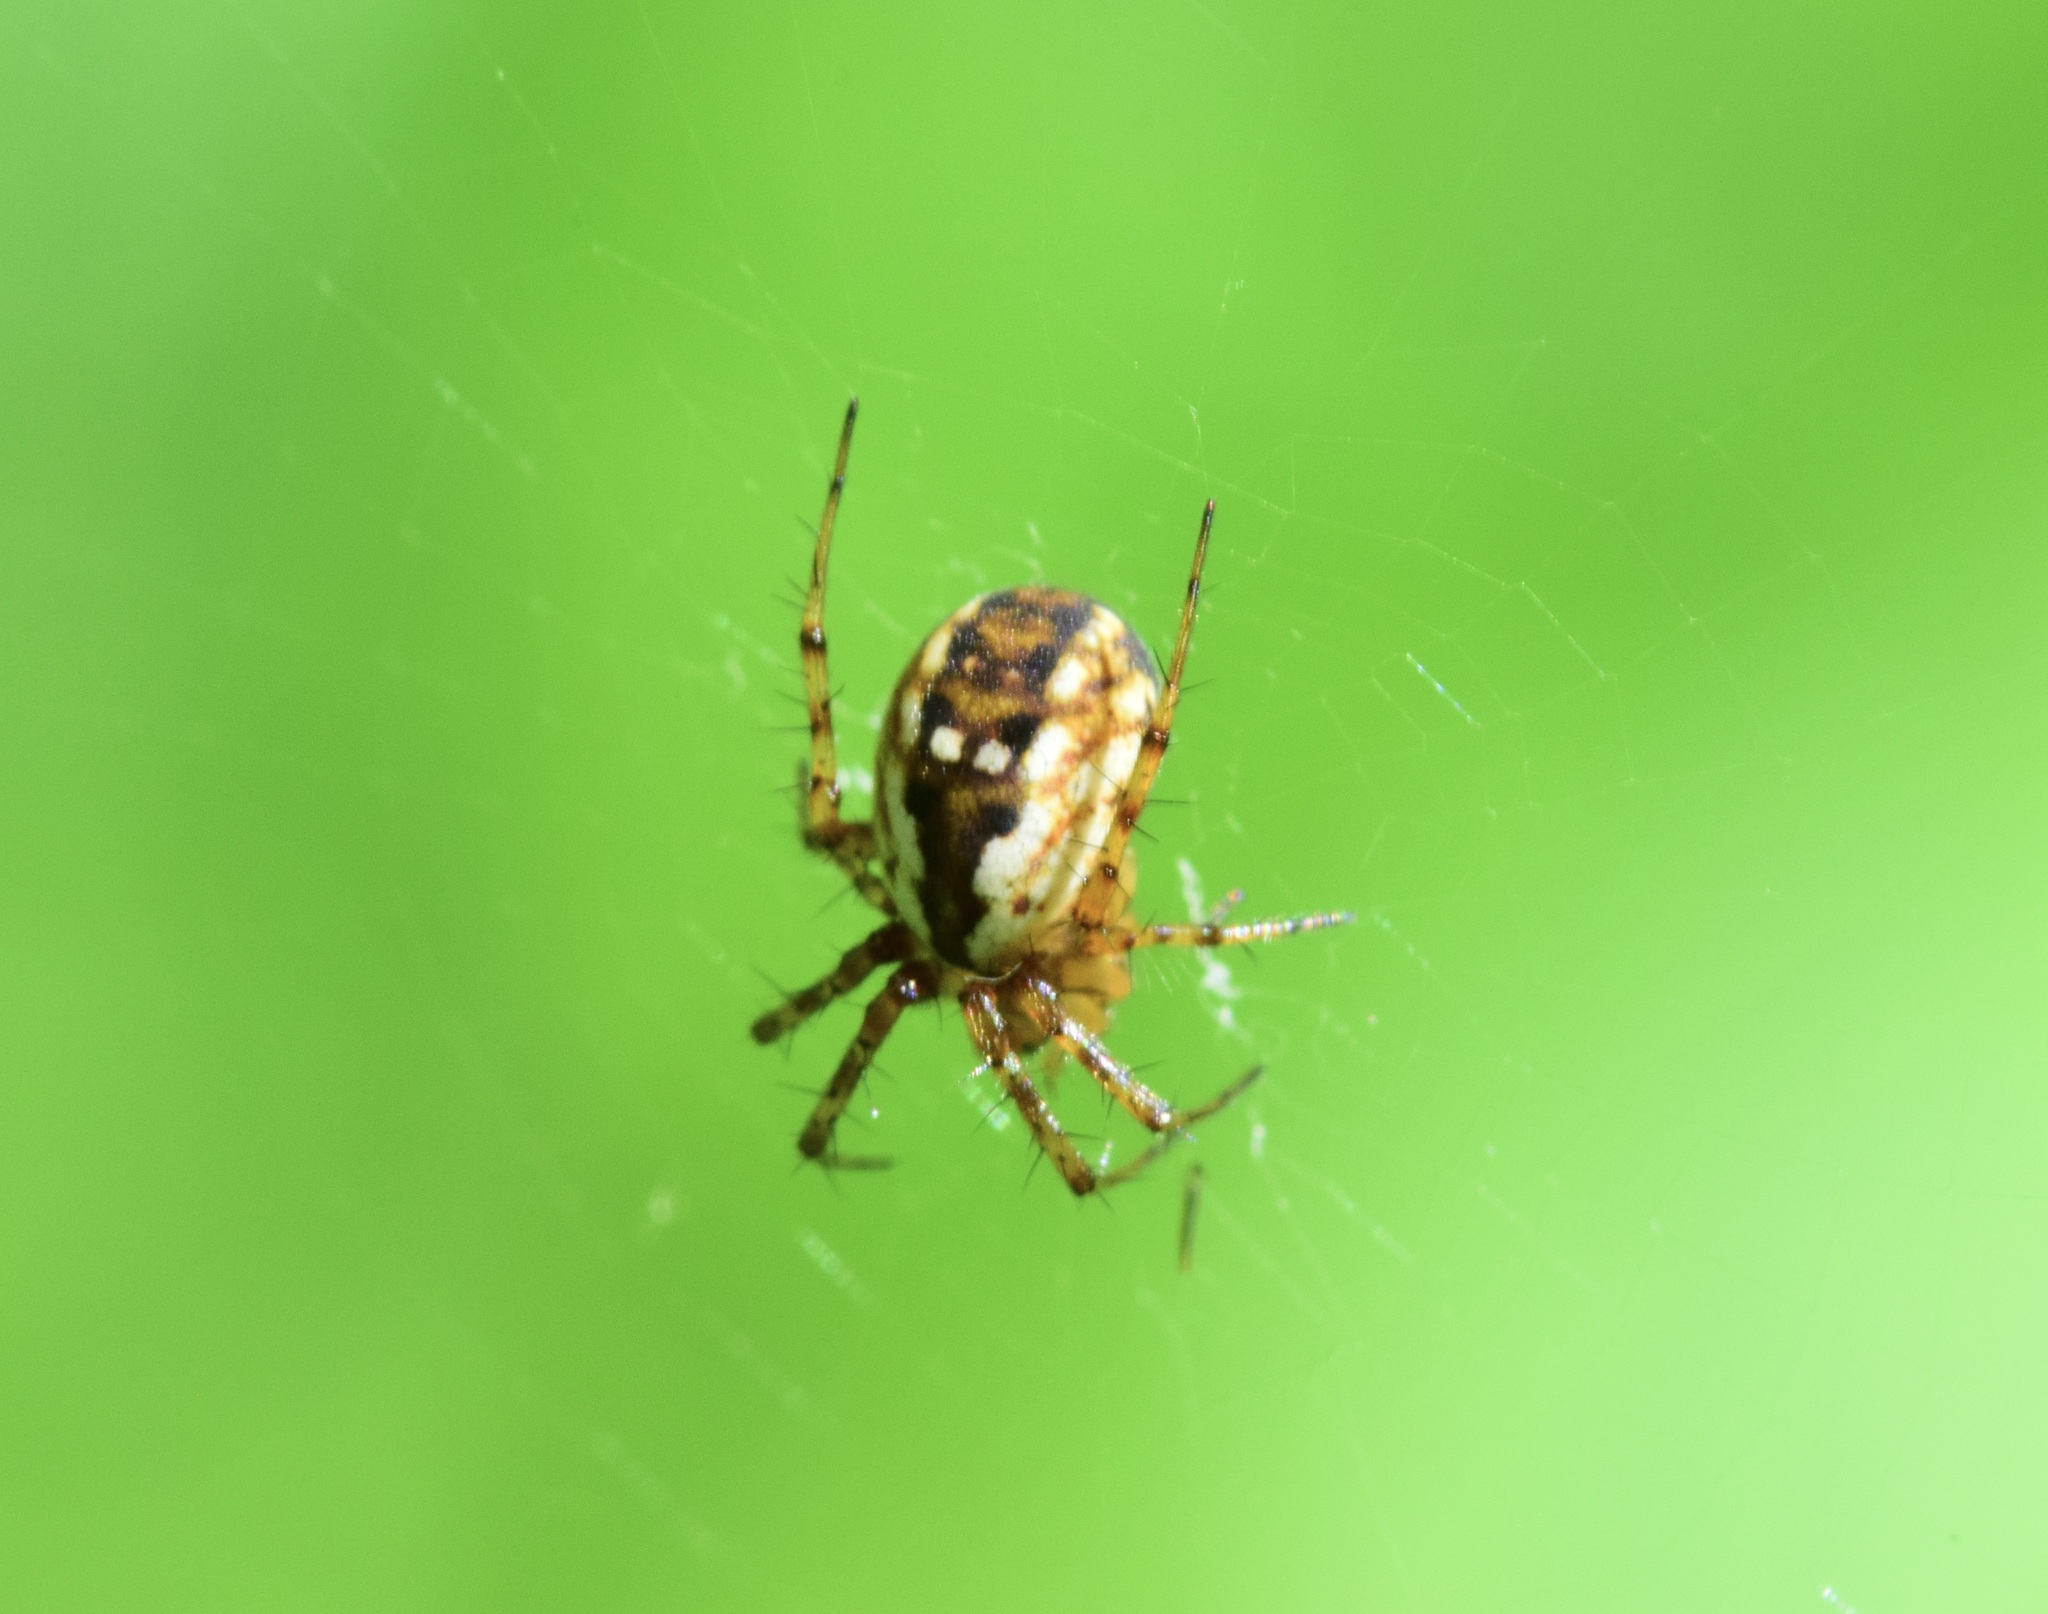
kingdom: Animalia
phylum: Arthropoda
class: Arachnida
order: Araneae
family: Araneidae
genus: Mangora
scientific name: Mangora placida
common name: Tuft-legged orbweaver
